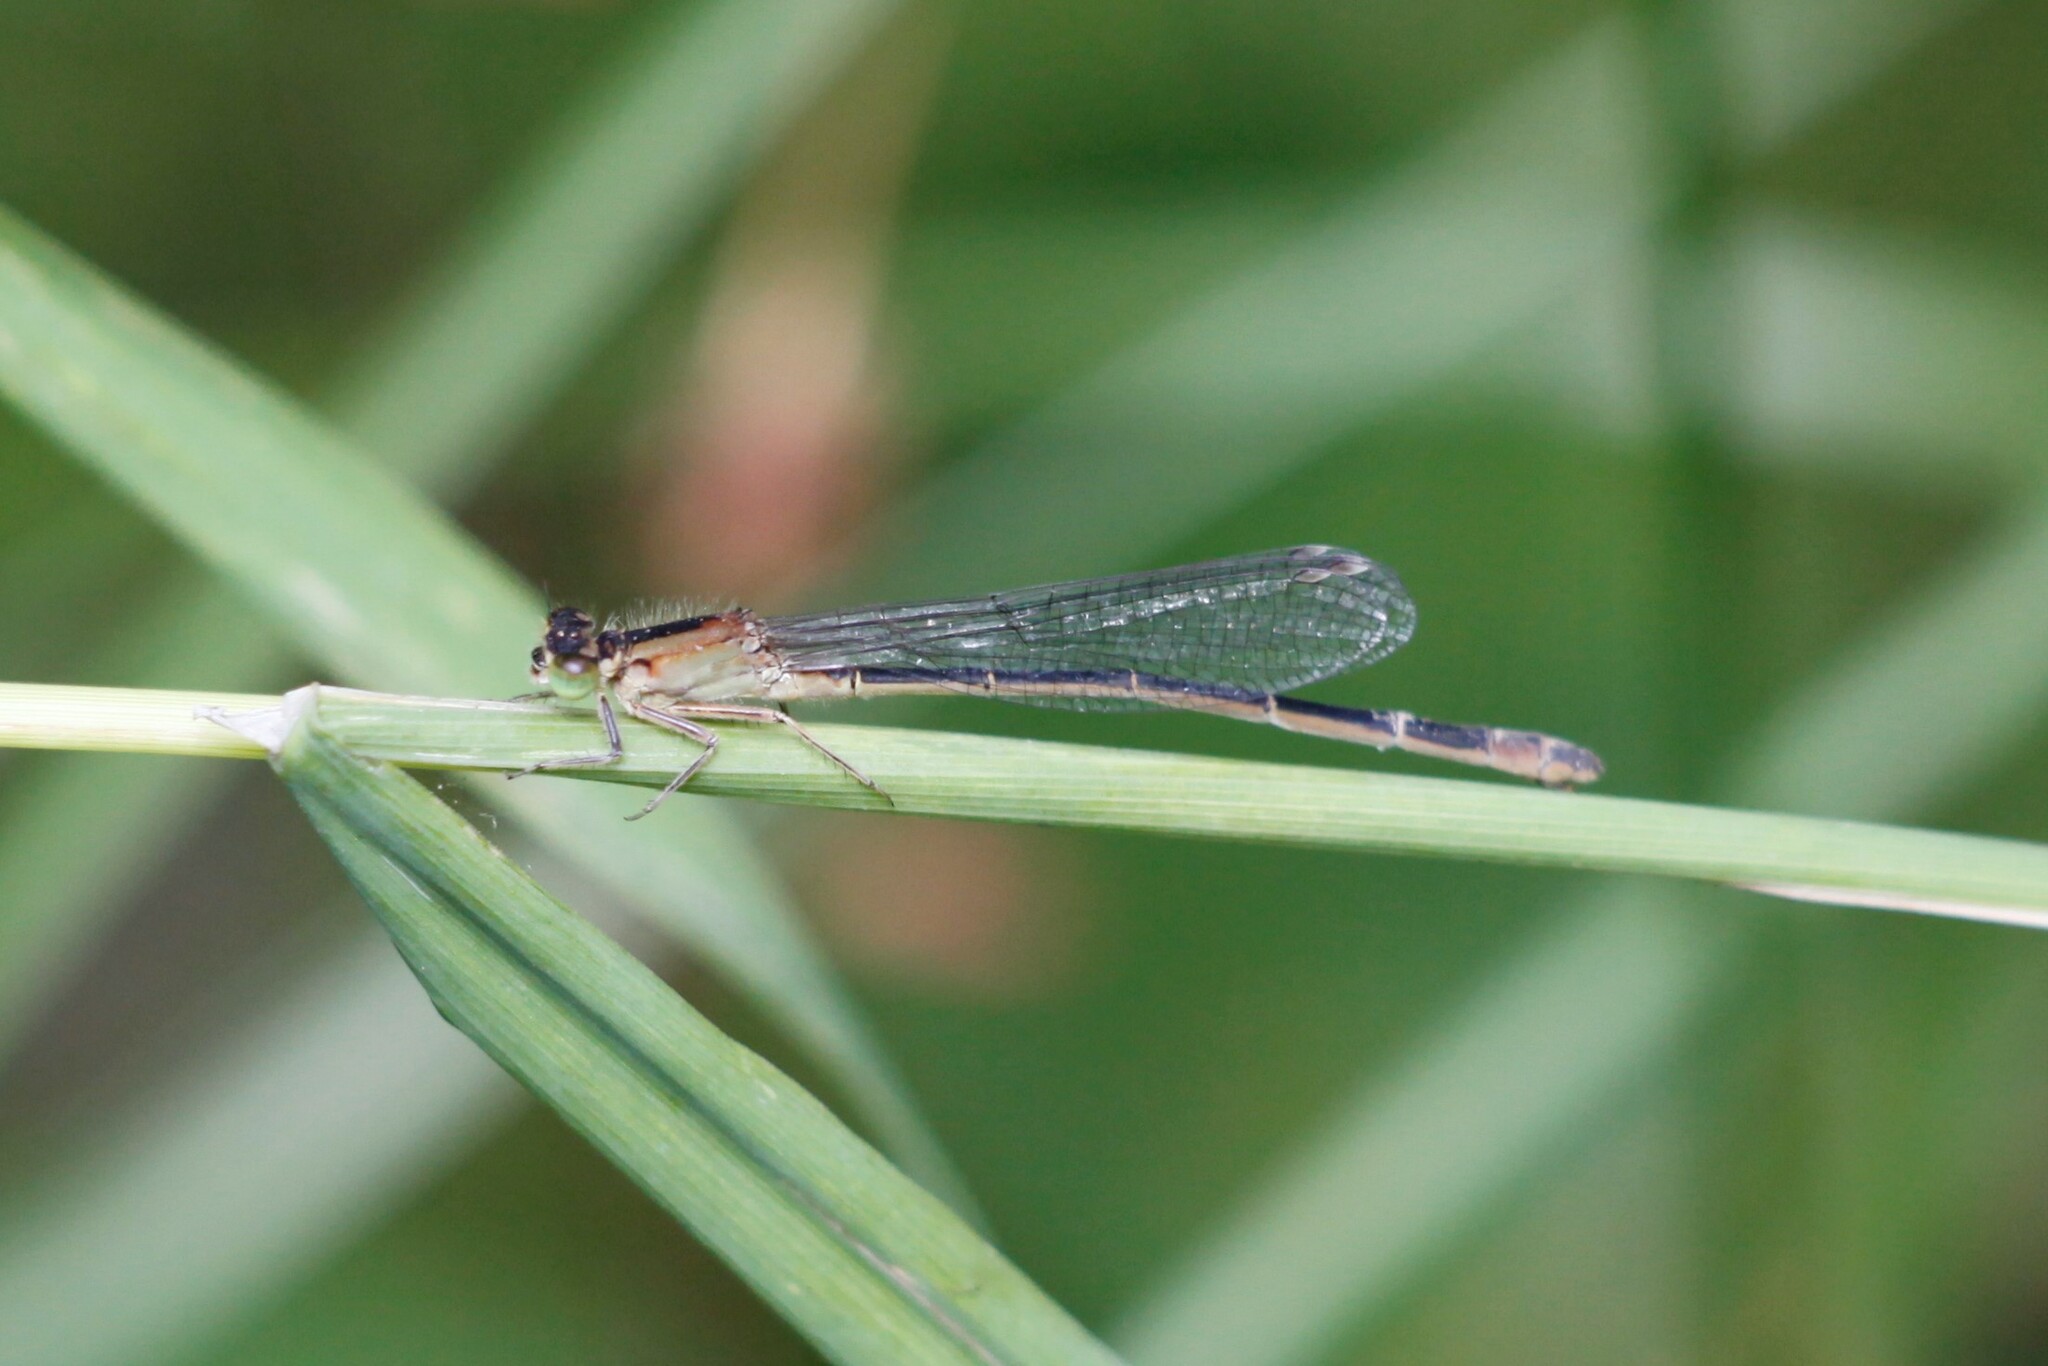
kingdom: Animalia
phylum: Arthropoda
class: Insecta
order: Odonata
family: Coenagrionidae
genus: Ischnura
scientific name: Ischnura elegans
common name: Blue-tailed damselfly
